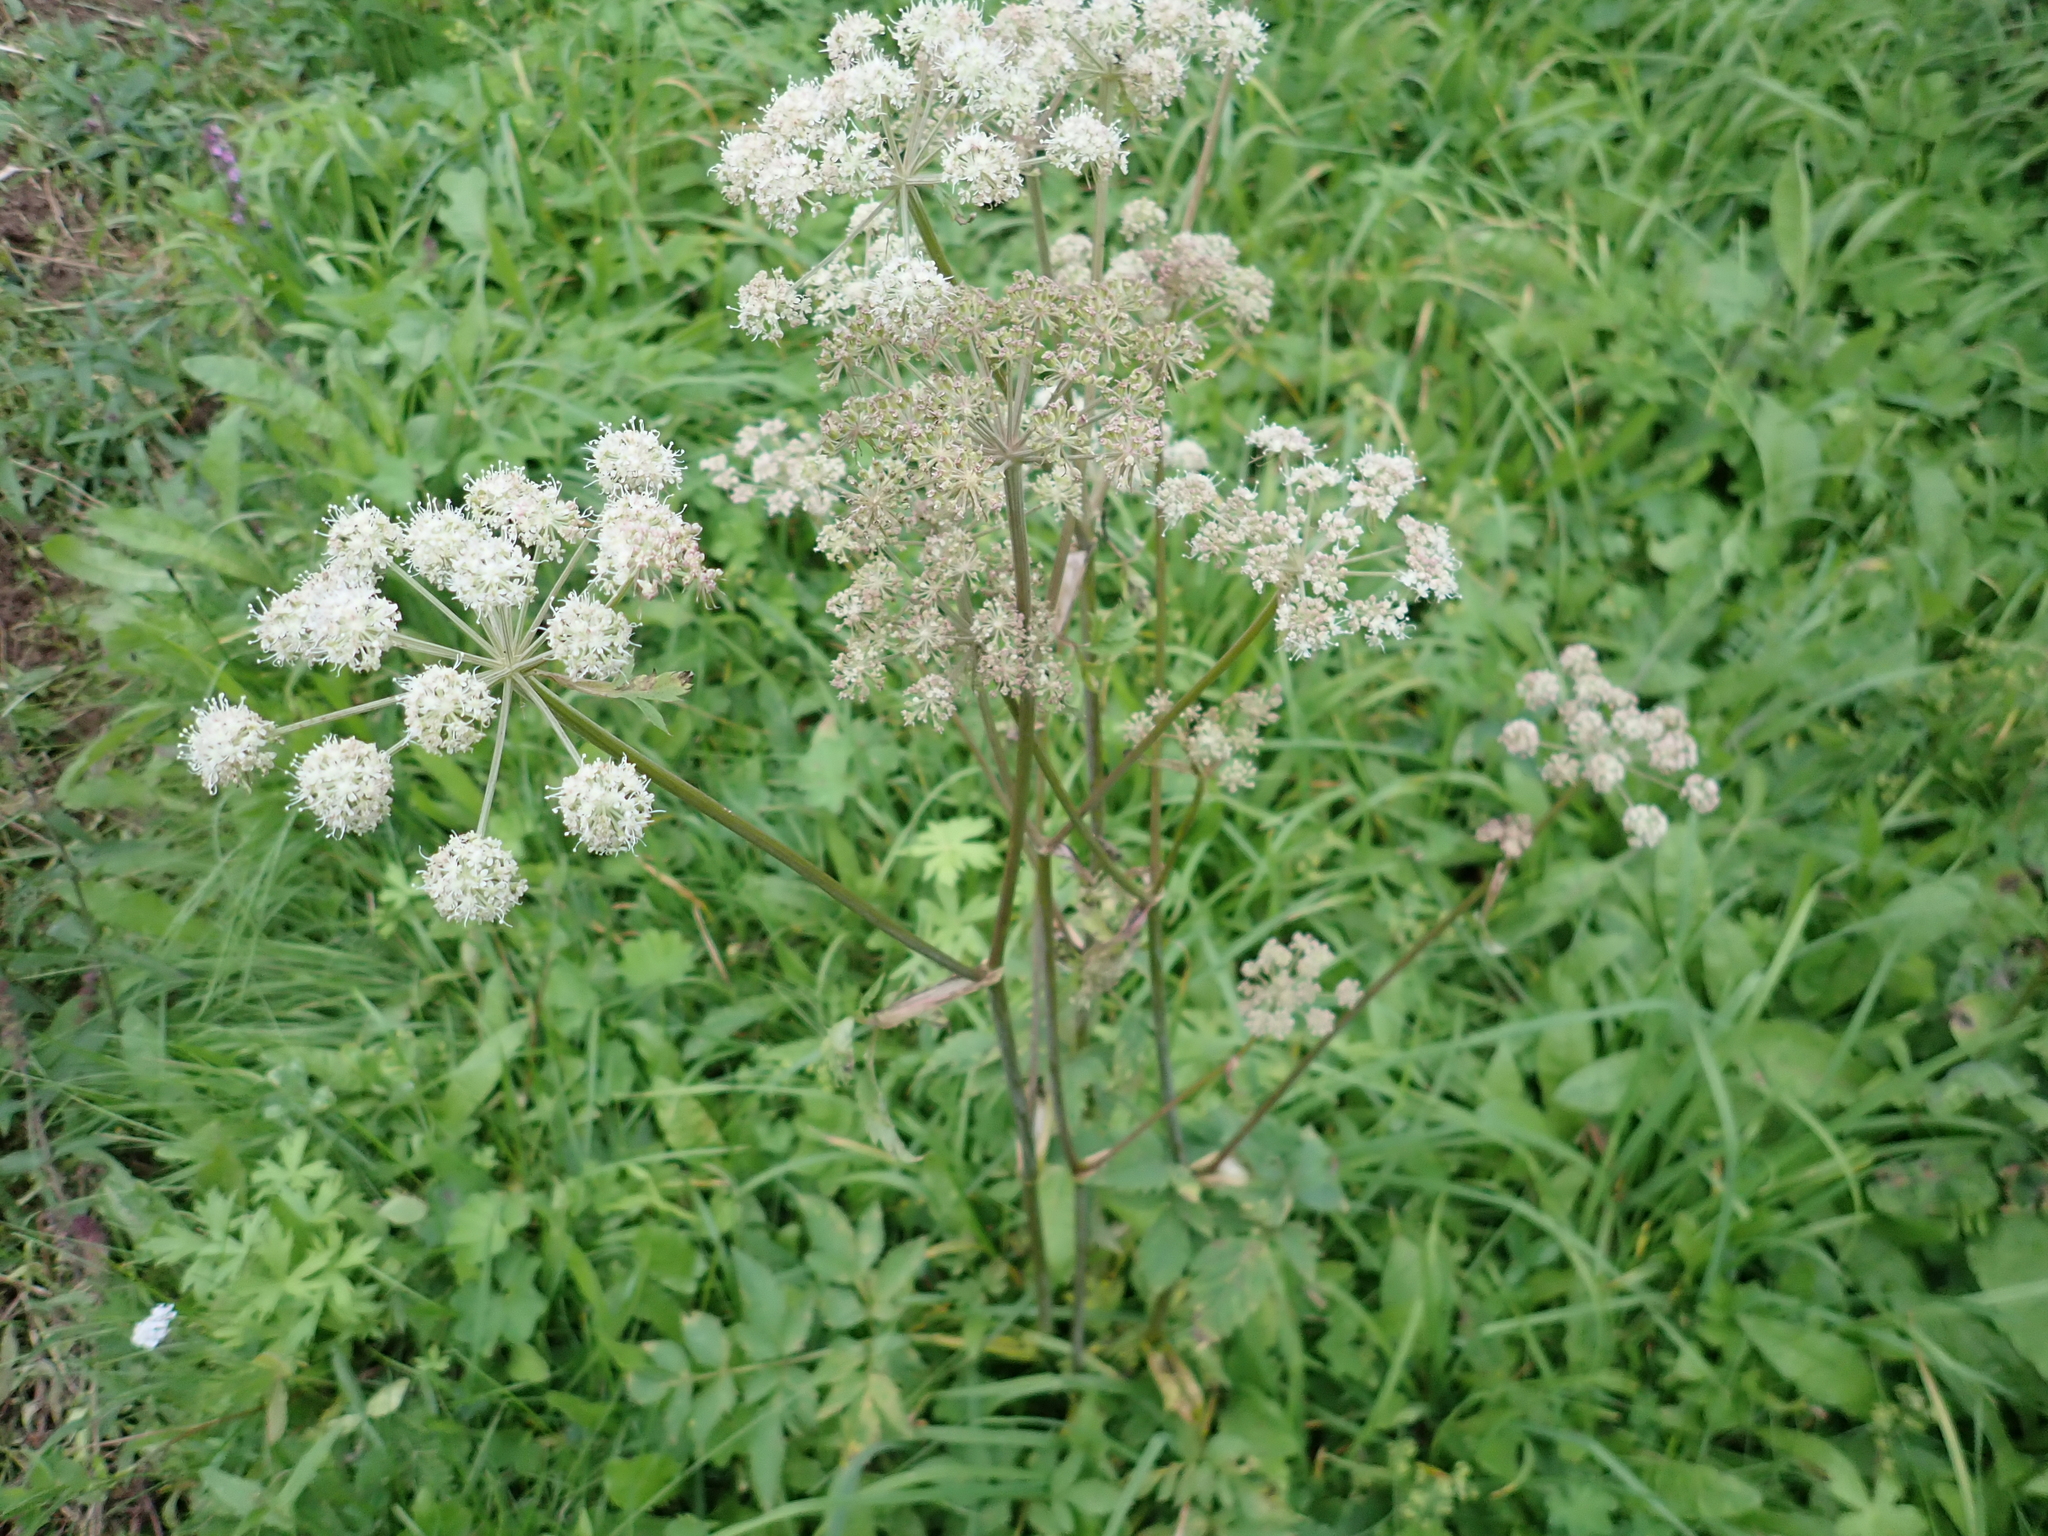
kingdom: Plantae
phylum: Tracheophyta
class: Magnoliopsida
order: Apiales
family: Apiaceae
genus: Angelica
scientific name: Angelica sylvestris
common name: Wild angelica
